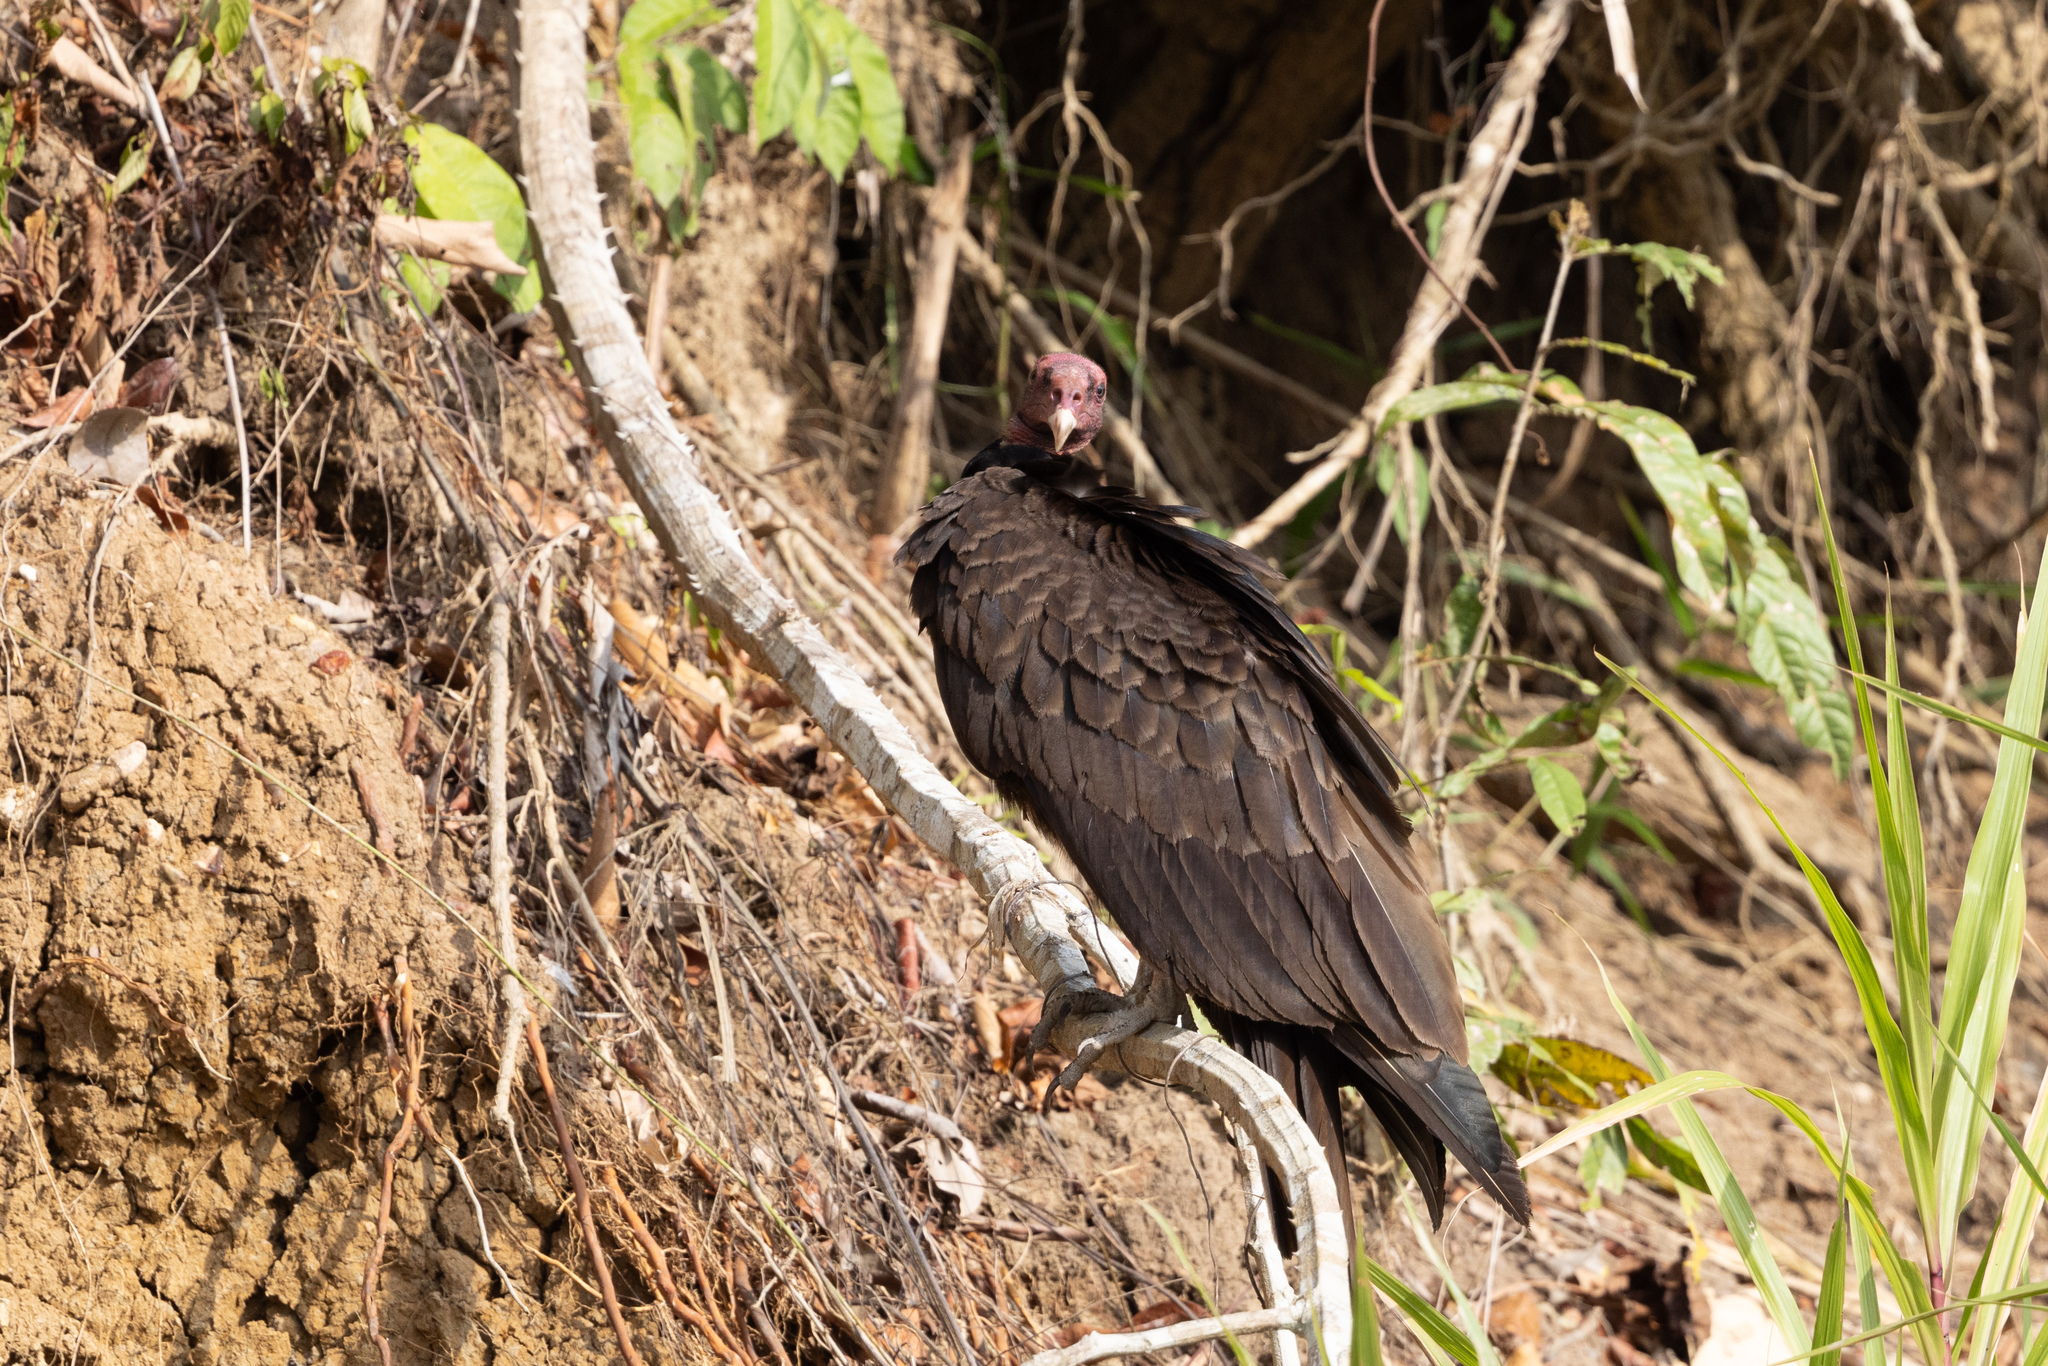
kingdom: Animalia
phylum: Chordata
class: Aves
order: Accipitriformes
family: Cathartidae
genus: Cathartes
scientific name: Cathartes aura
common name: Turkey vulture
